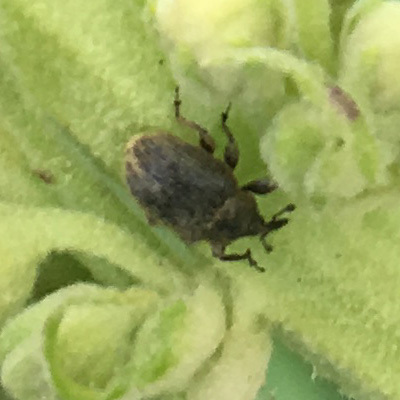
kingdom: Animalia
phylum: Arthropoda
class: Insecta
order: Coleoptera
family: Curculionidae
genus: Rhinusa
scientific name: Rhinusa tetra
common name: Weevil
